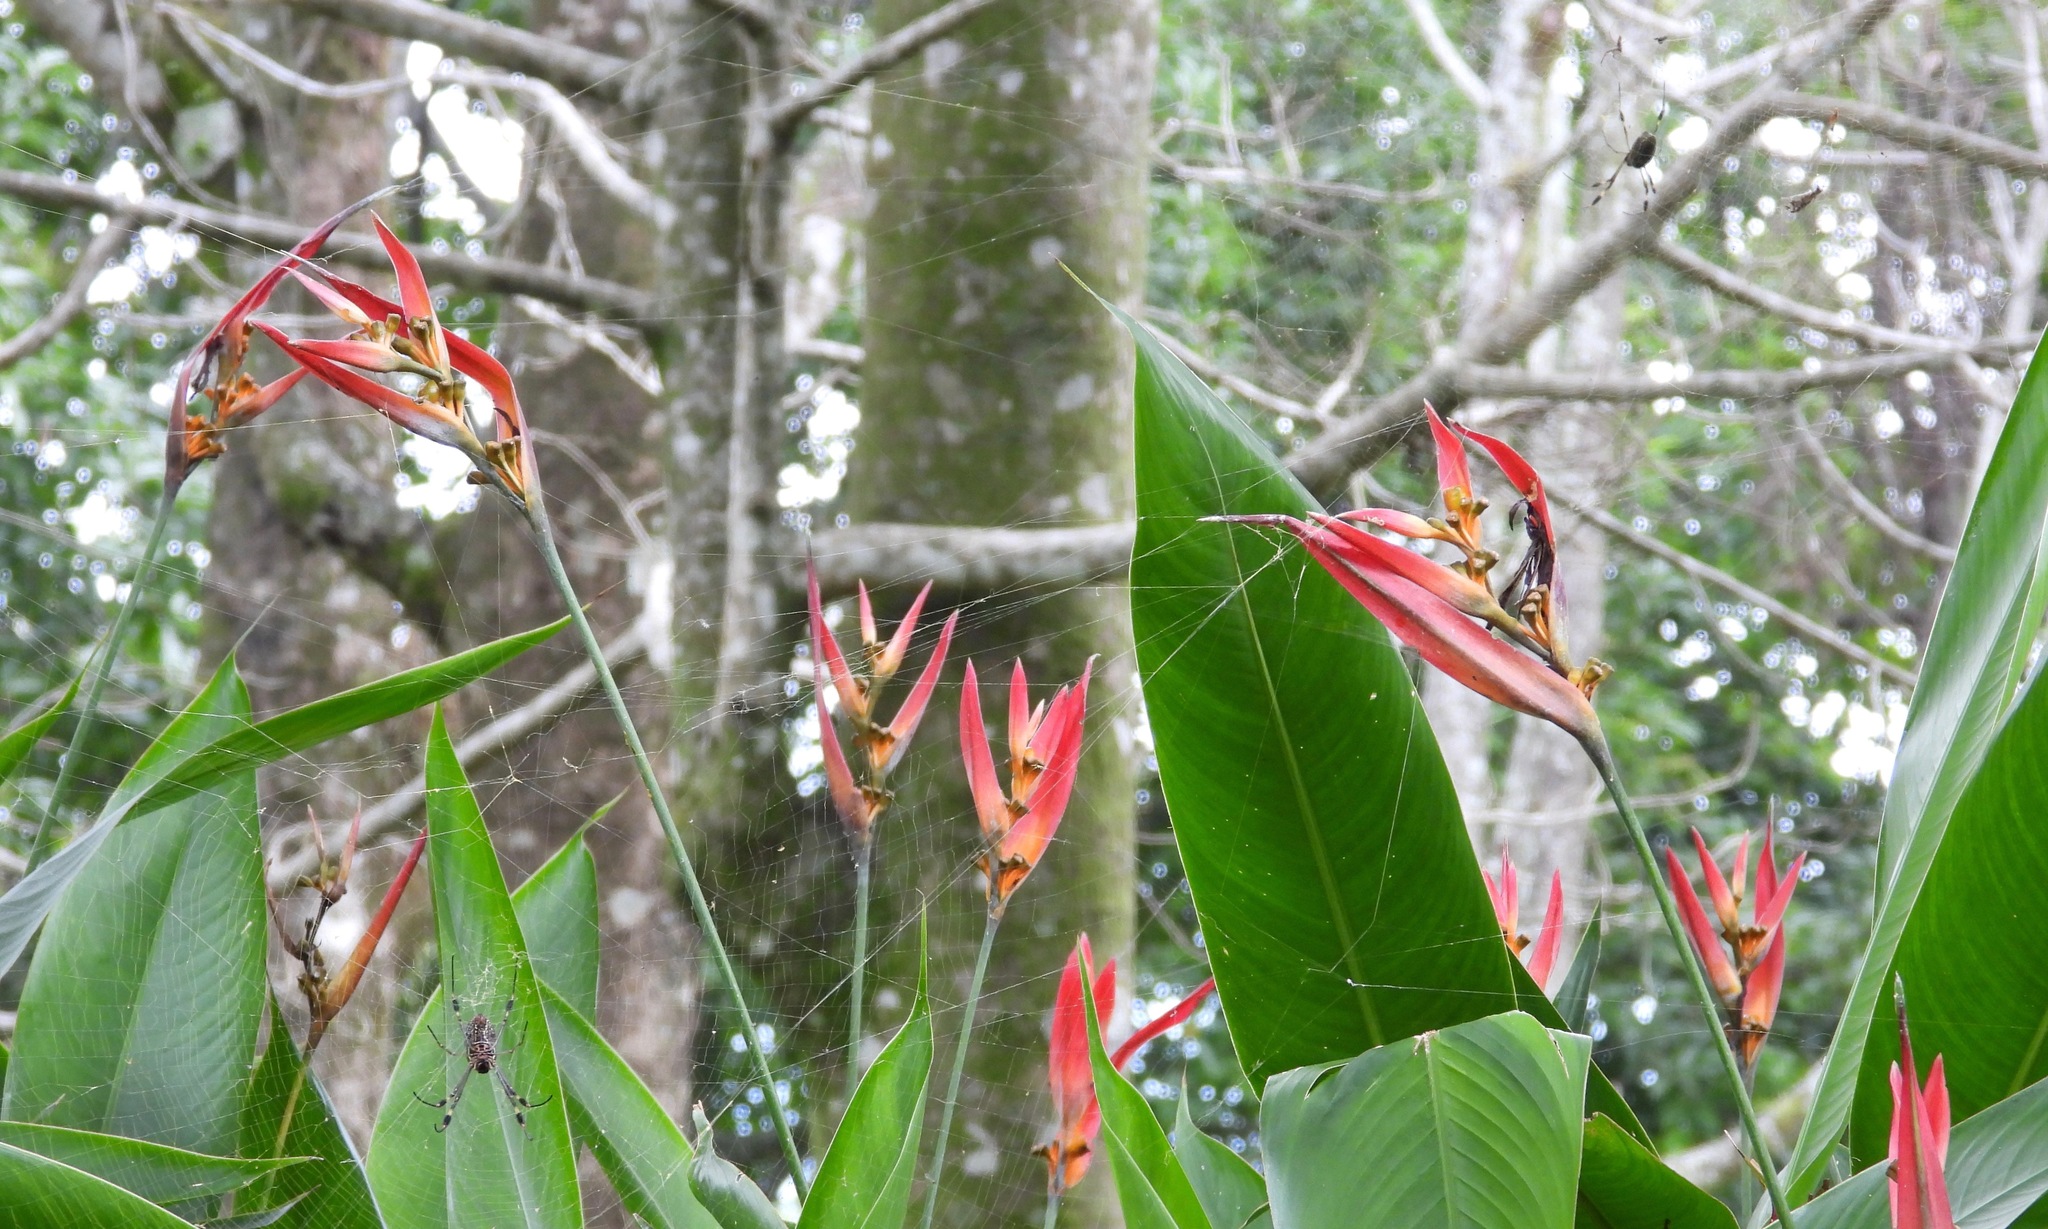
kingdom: Animalia
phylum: Arthropoda
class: Arachnida
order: Araneae
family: Araneidae
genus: Trichonephila
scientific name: Trichonephila clavipes
